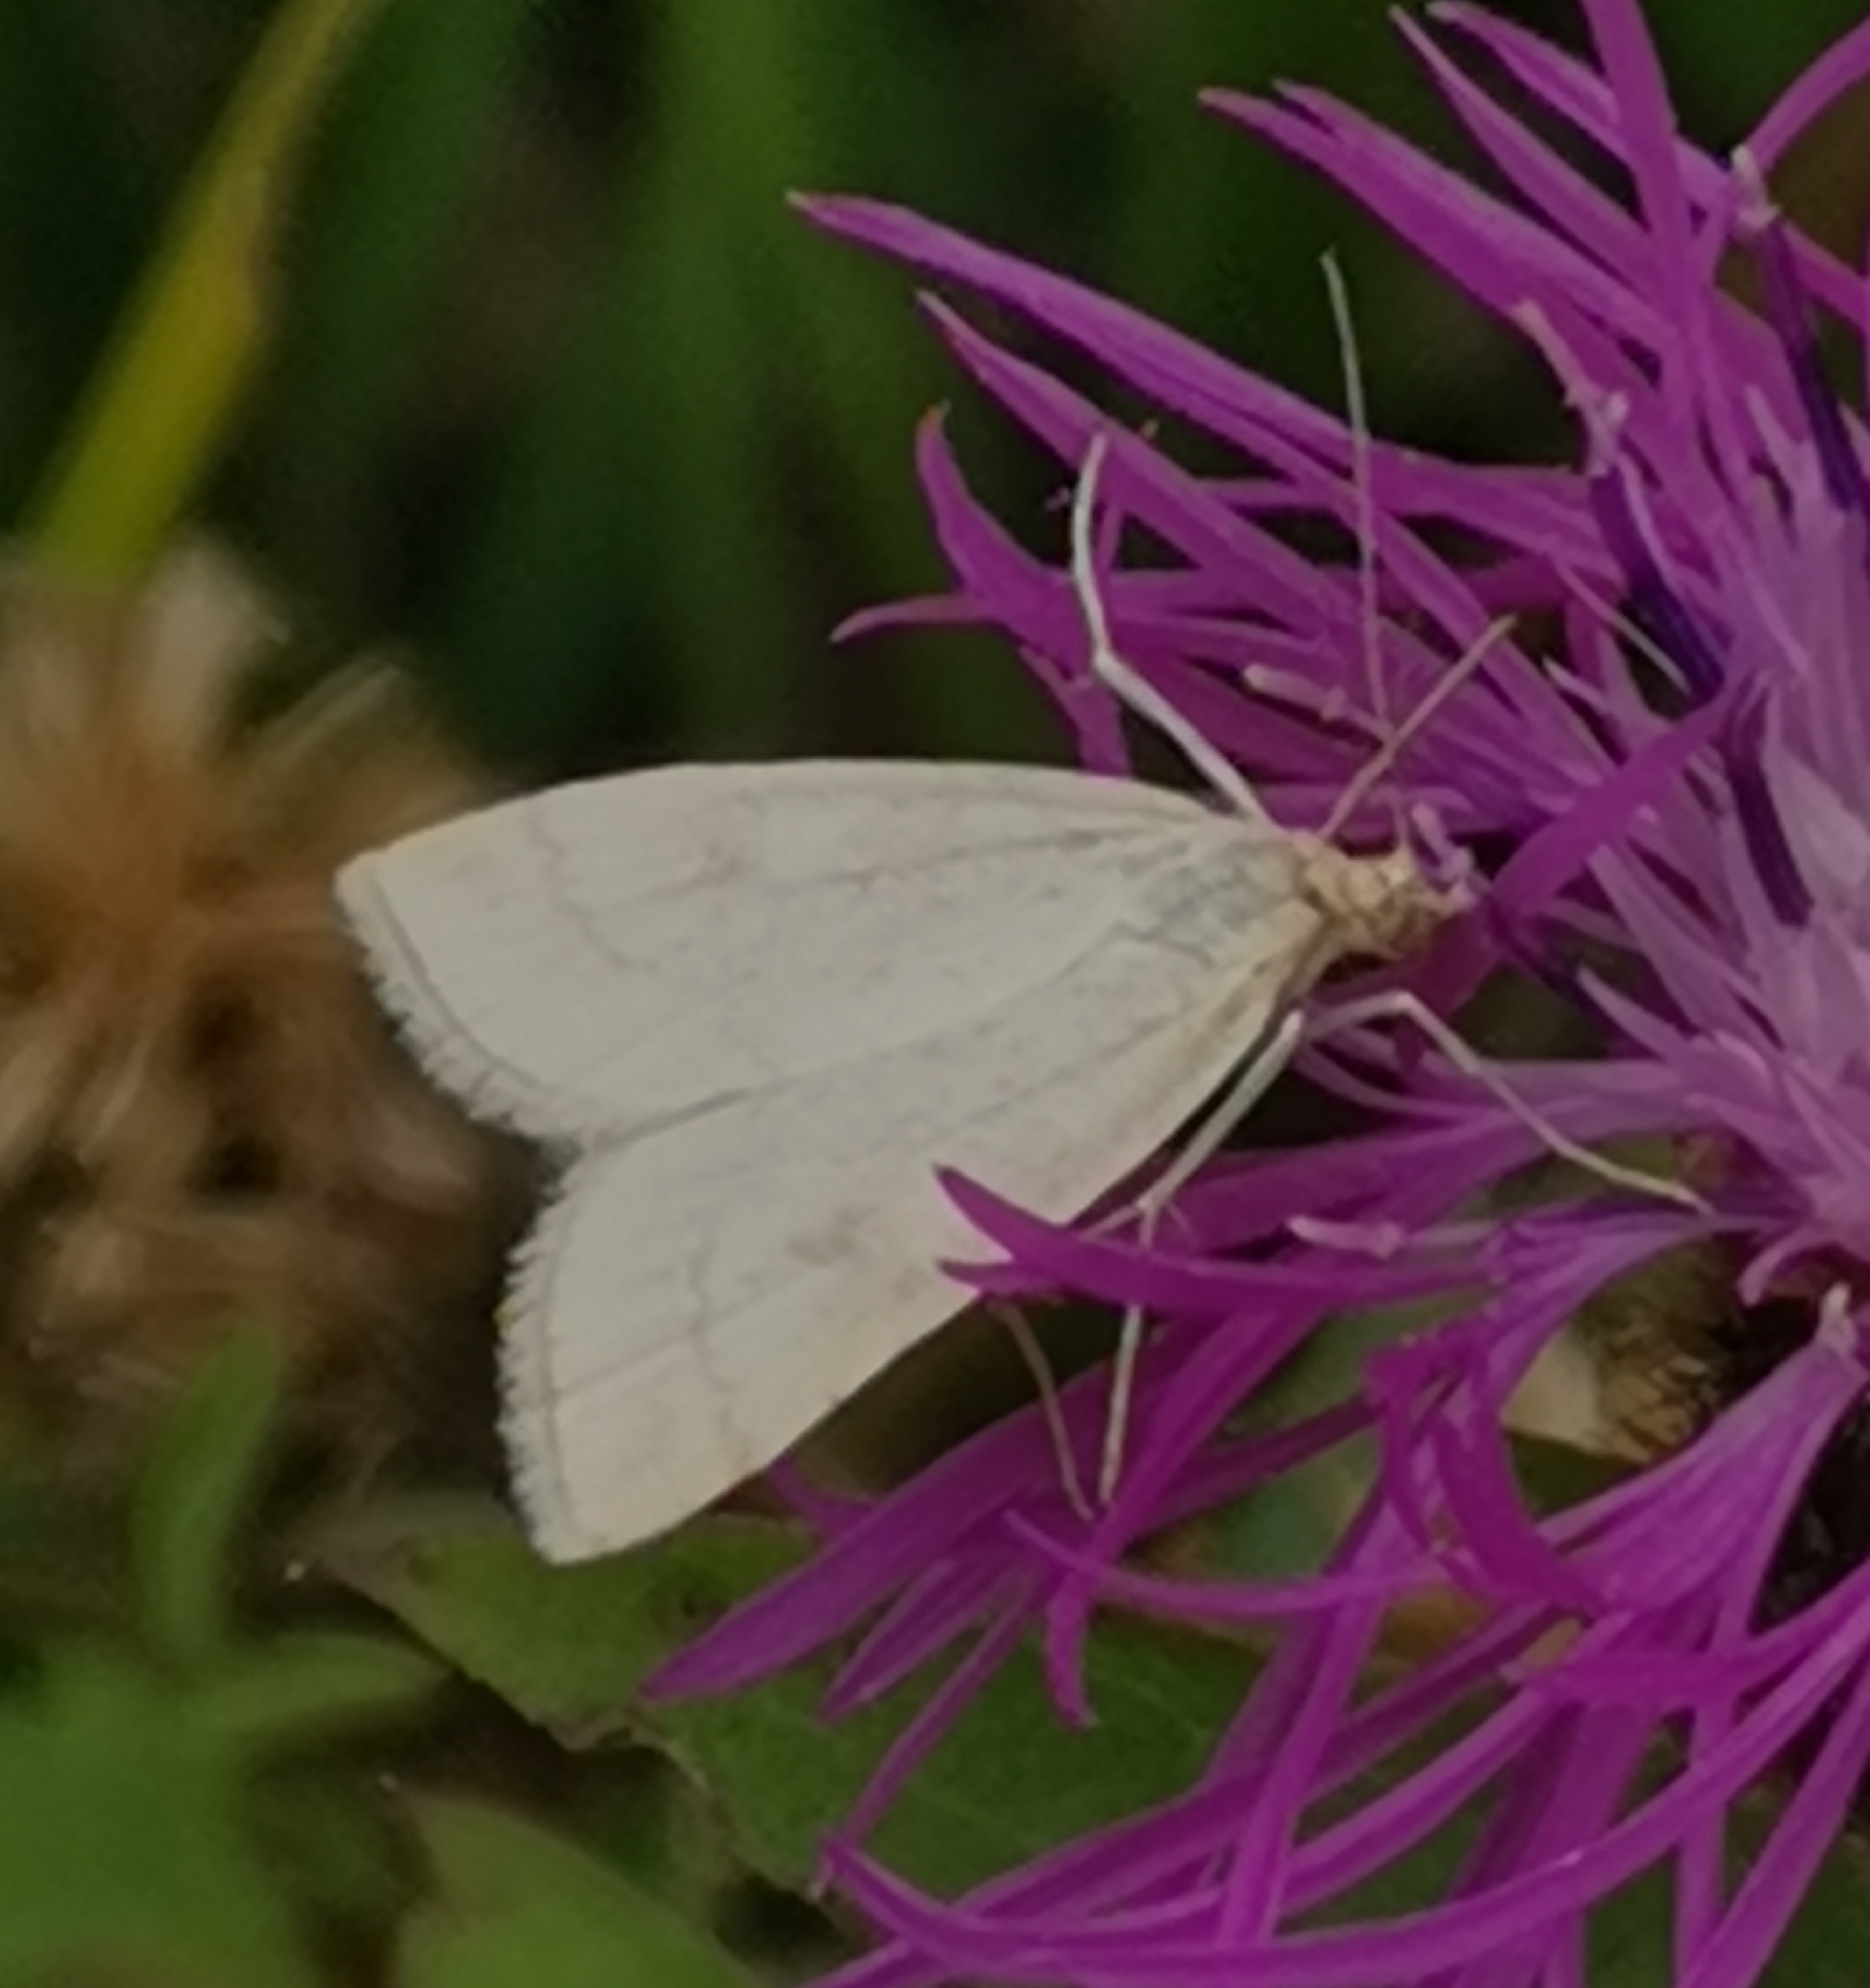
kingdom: Animalia
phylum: Arthropoda
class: Insecta
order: Lepidoptera
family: Crambidae
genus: Udea
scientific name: Udea lutealis
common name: Pale straw pearl
